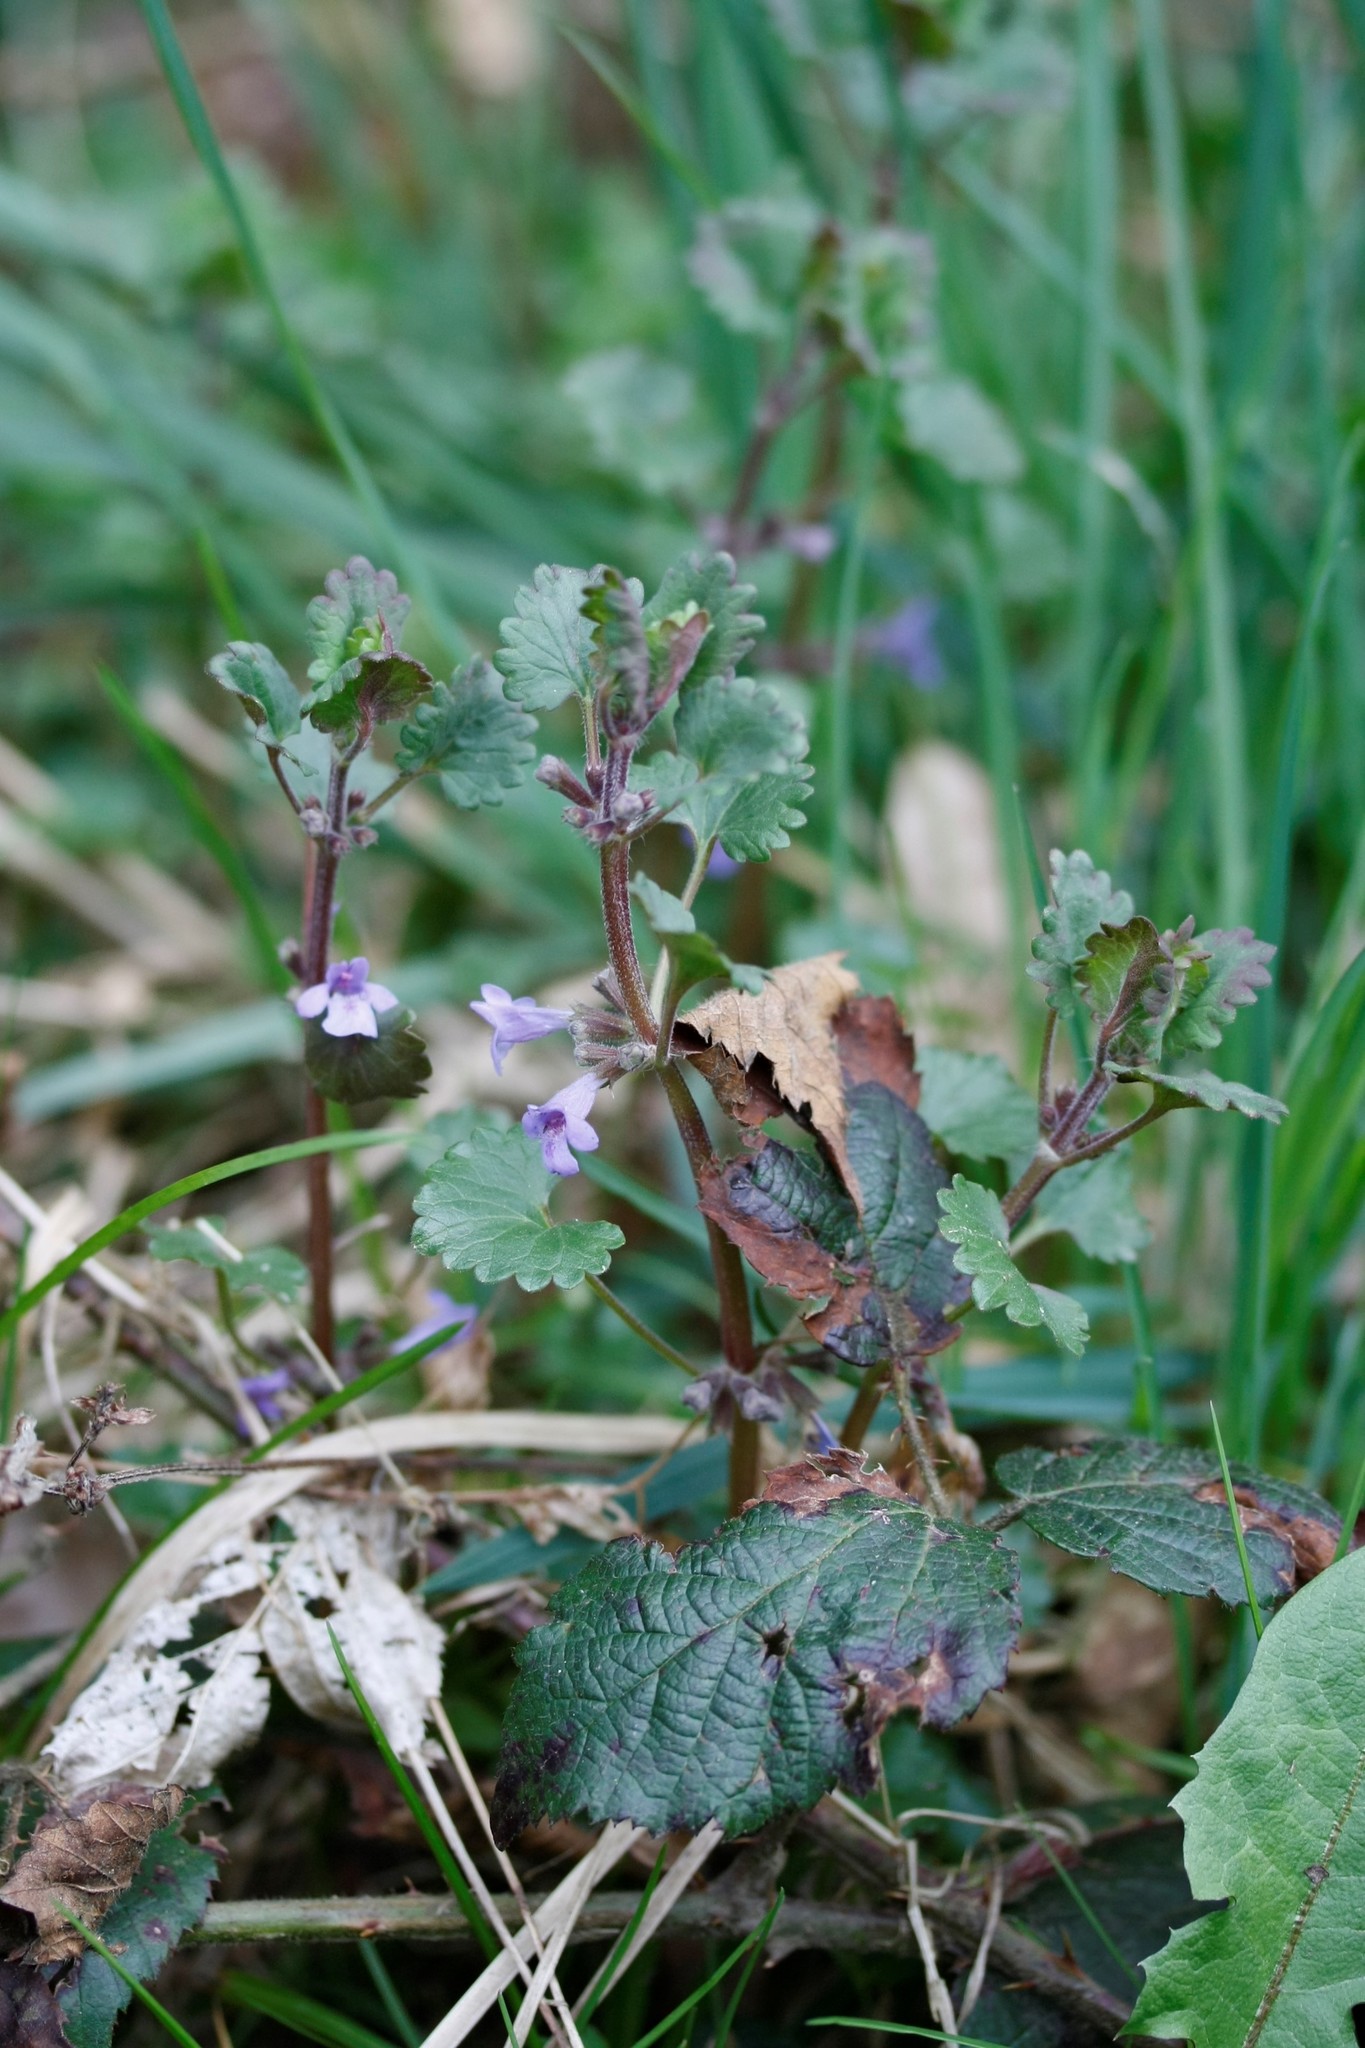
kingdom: Plantae
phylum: Tracheophyta
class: Magnoliopsida
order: Lamiales
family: Lamiaceae
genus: Glechoma
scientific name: Glechoma hederacea
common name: Ground ivy
